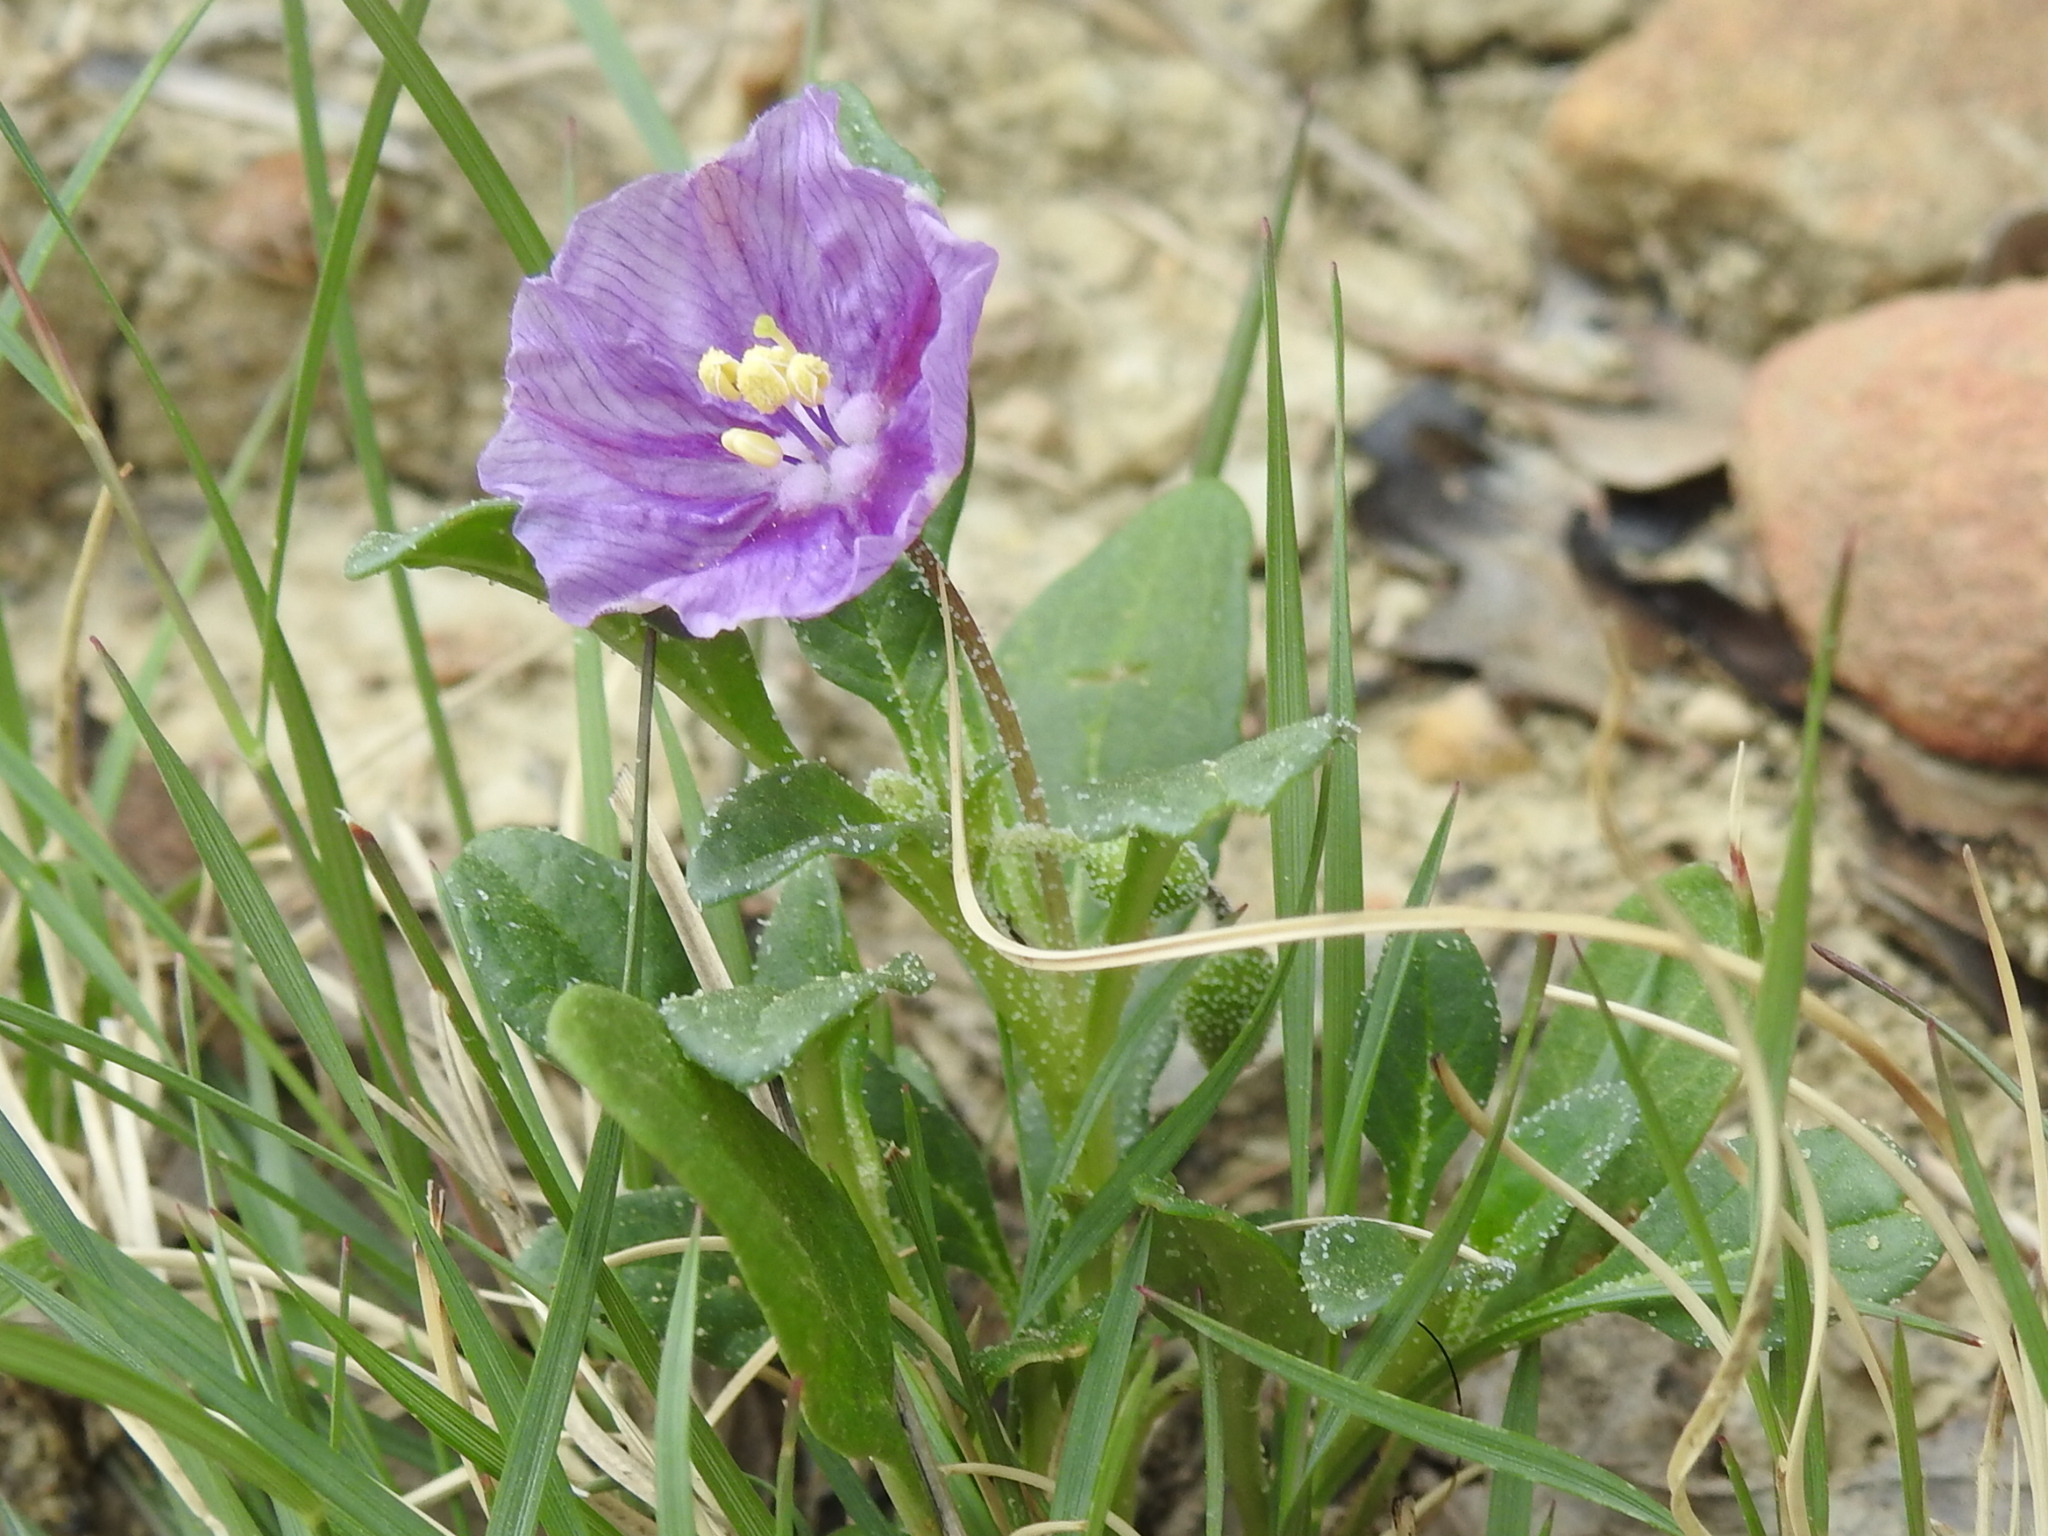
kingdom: Plantae
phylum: Tracheophyta
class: Magnoliopsida
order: Solanales
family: Solanaceae
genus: Quincula
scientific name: Quincula lobata
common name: Purple-ground-cherry
